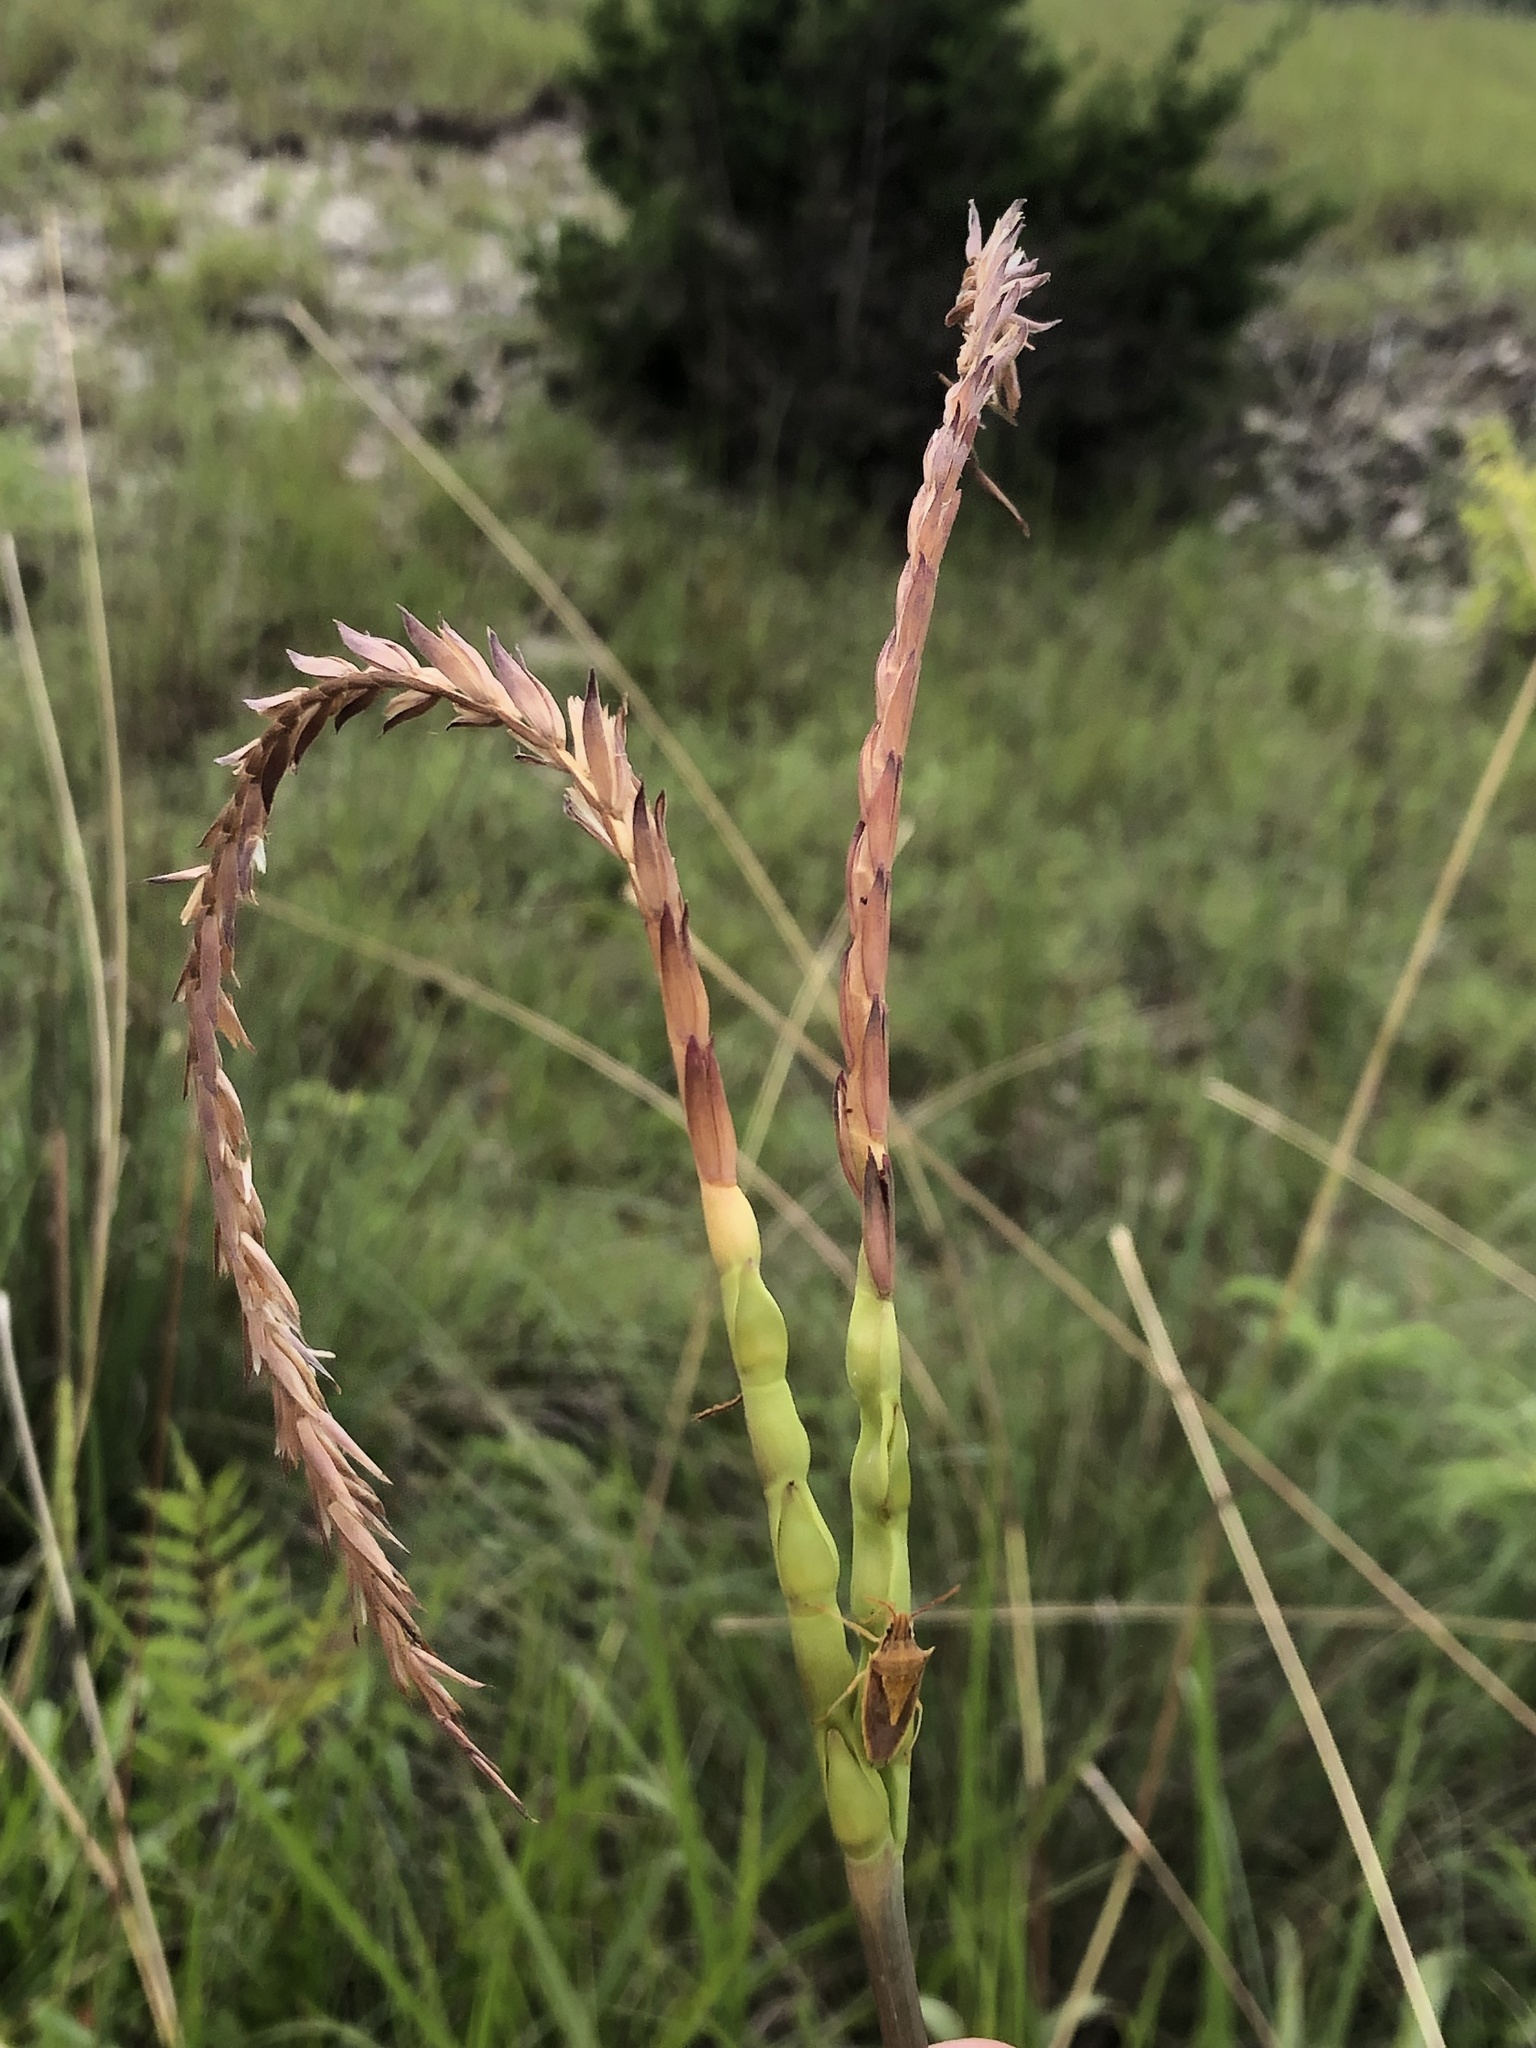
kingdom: Plantae
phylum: Tracheophyta
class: Liliopsida
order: Poales
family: Poaceae
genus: Tripsacum
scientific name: Tripsacum dactyloides
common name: Buffalo-grass
